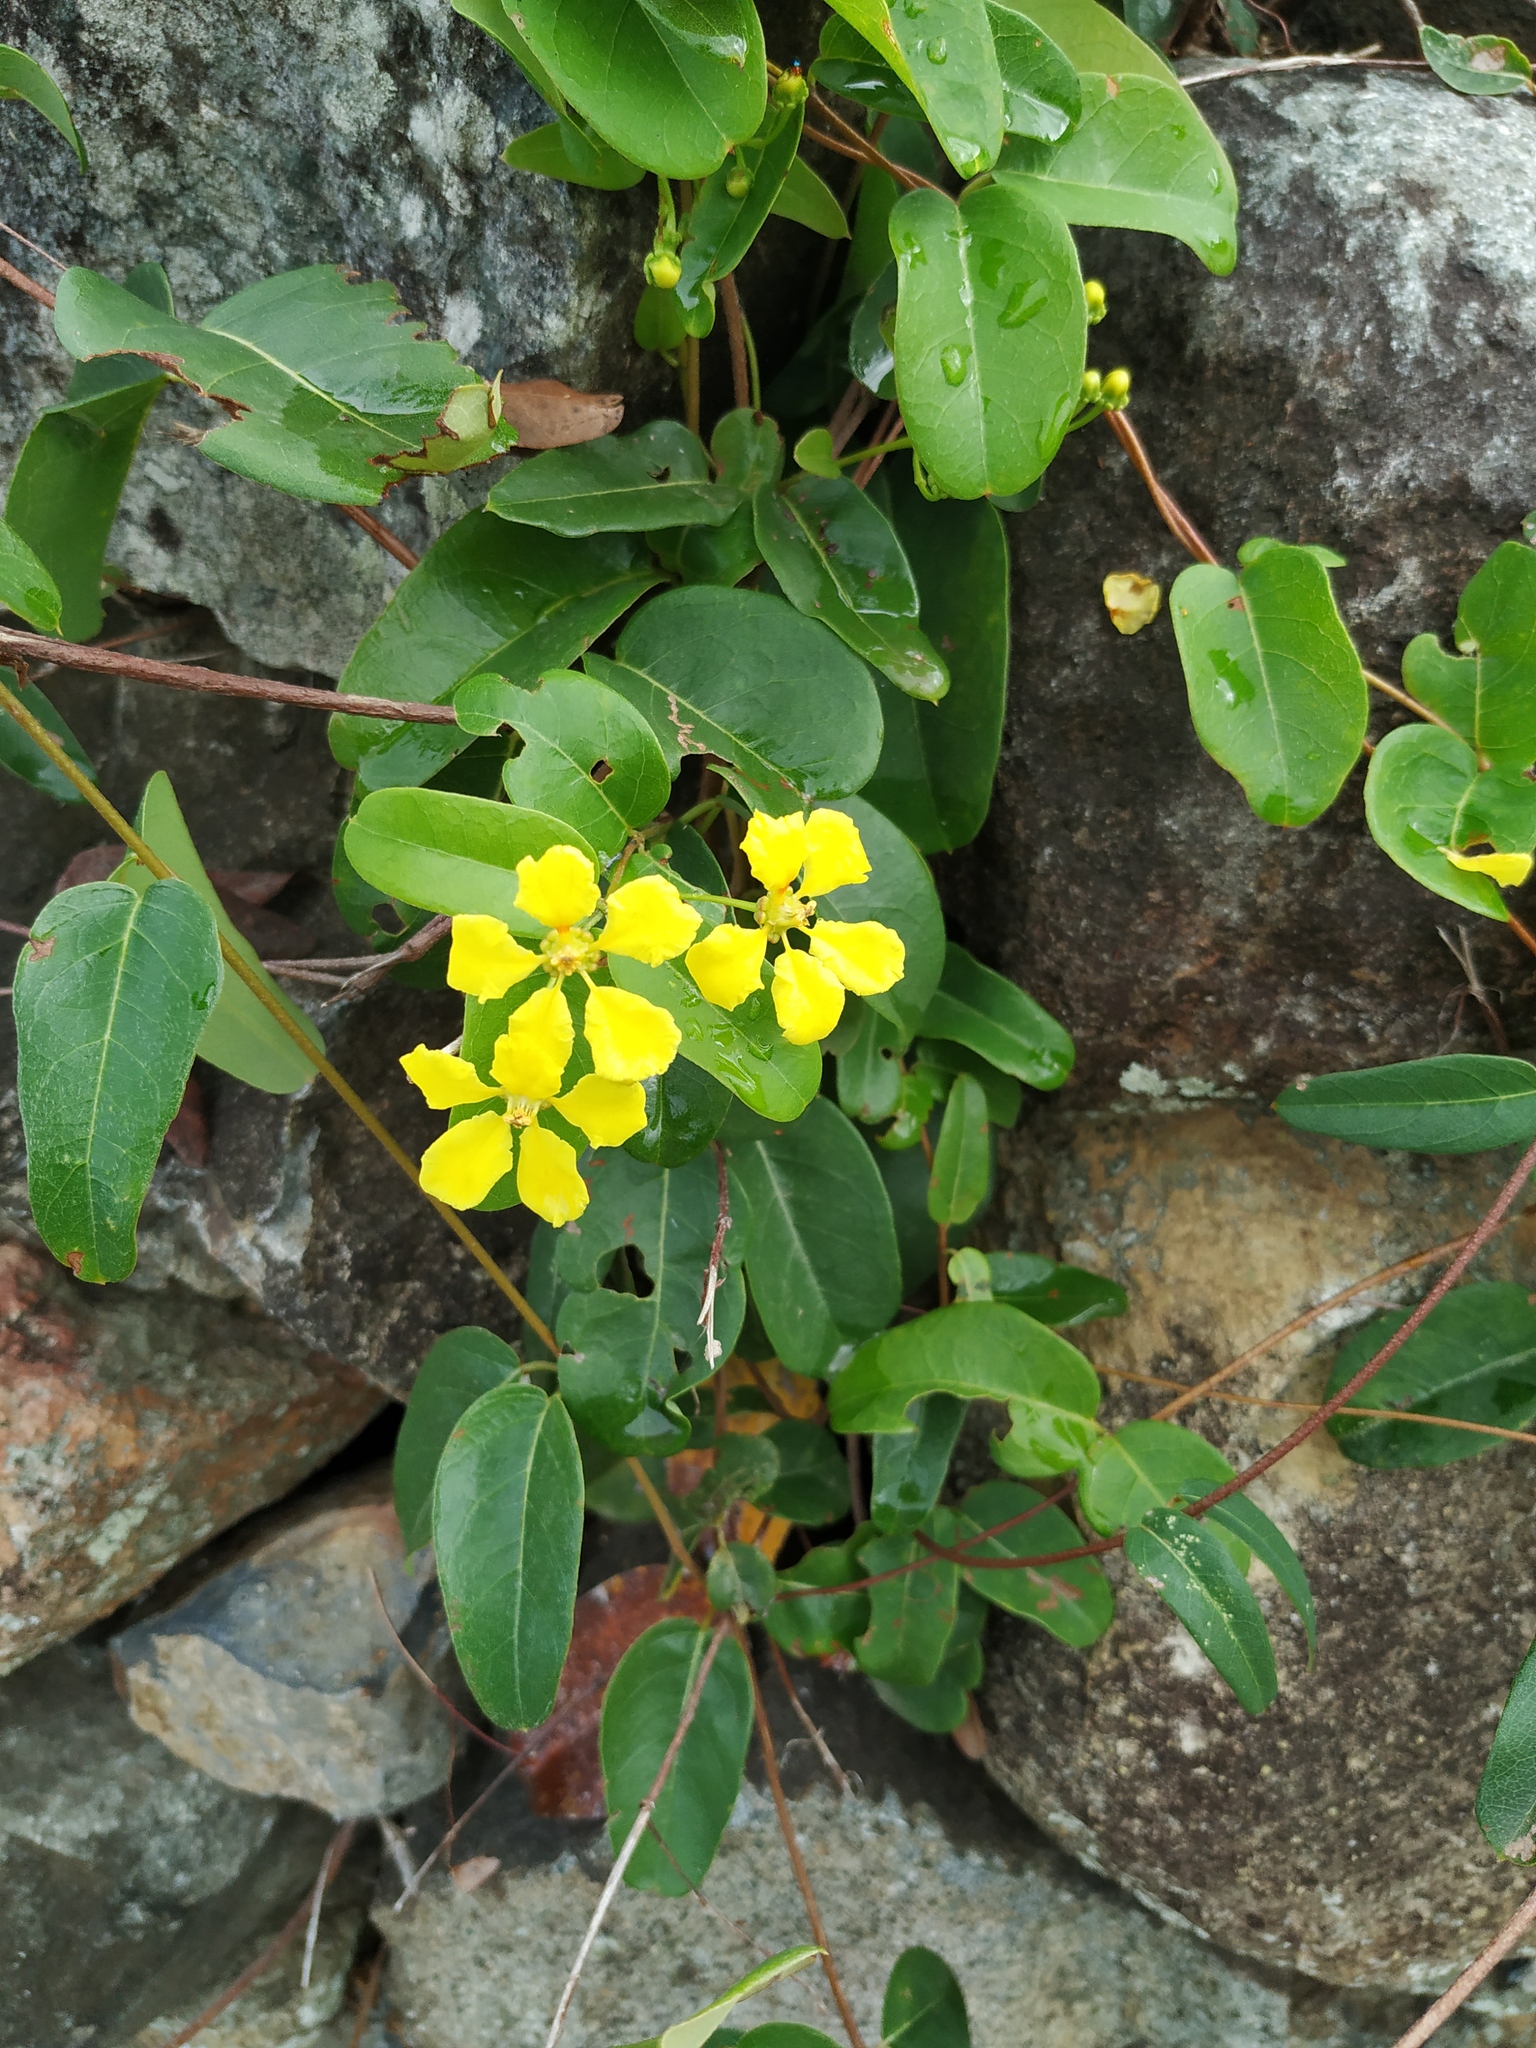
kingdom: Plantae
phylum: Tracheophyta
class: Magnoliopsida
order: Malpighiales
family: Malpighiaceae
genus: Stigmaphyllon
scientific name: Stigmaphyllon emarginatum
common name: Monarch amazonvine
